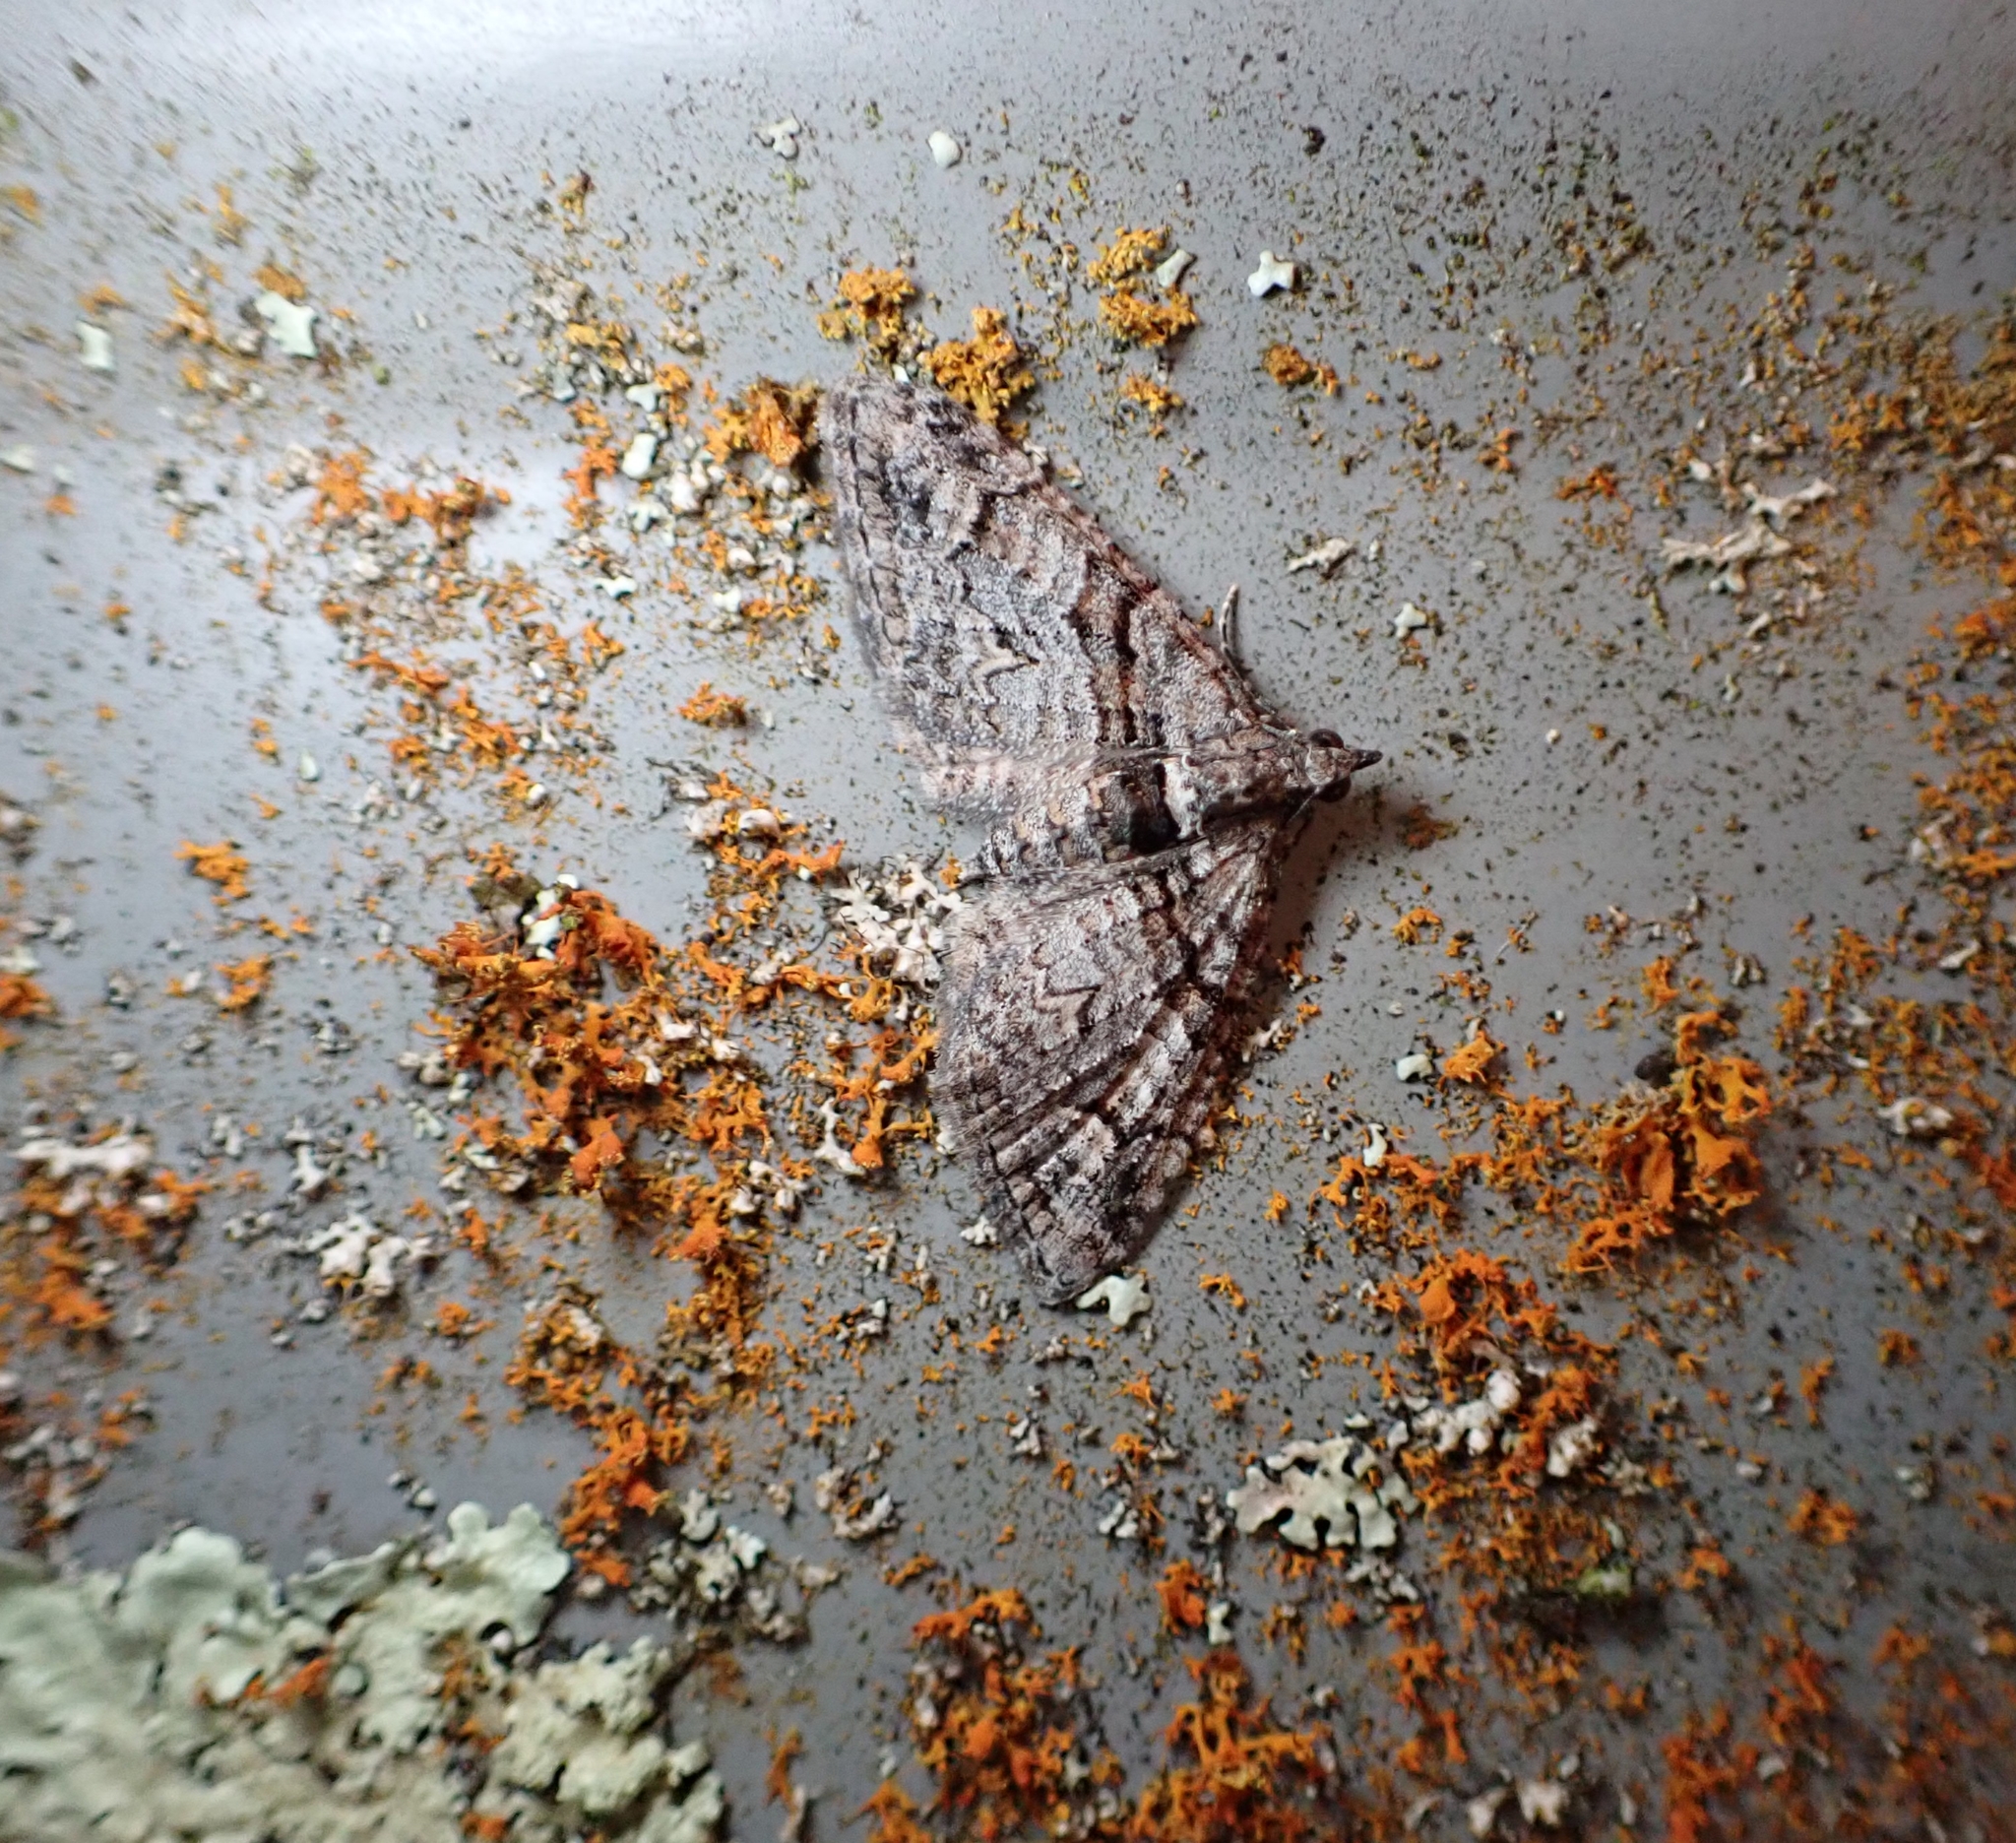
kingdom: Animalia
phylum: Arthropoda
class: Insecta
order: Lepidoptera
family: Geometridae
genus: Phrissogonus
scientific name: Phrissogonus laticostata
